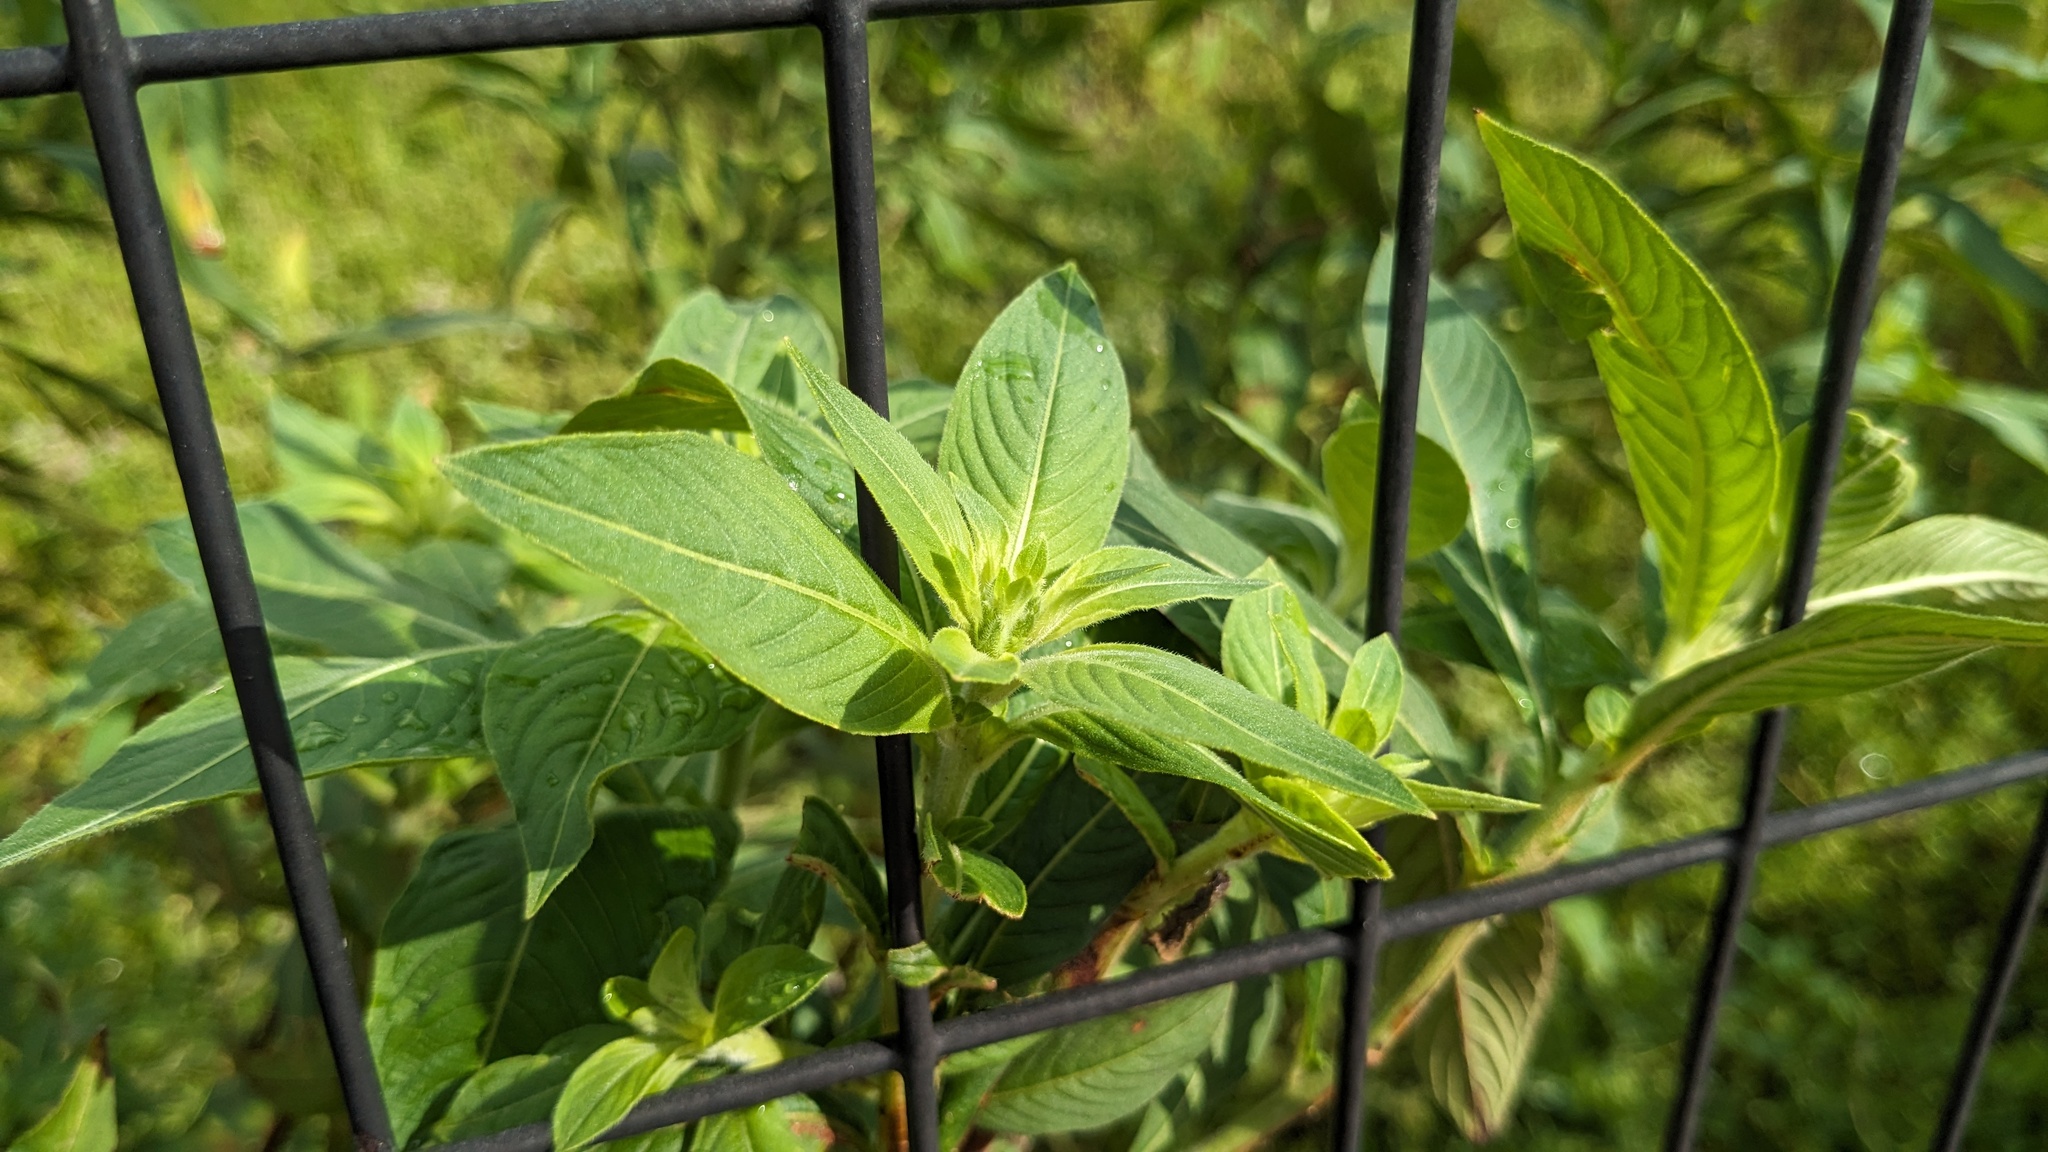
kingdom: Plantae
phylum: Tracheophyta
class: Magnoliopsida
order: Myrtales
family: Onagraceae
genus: Ludwigia
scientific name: Ludwigia peruviana
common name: Peruvian primrose-willow
